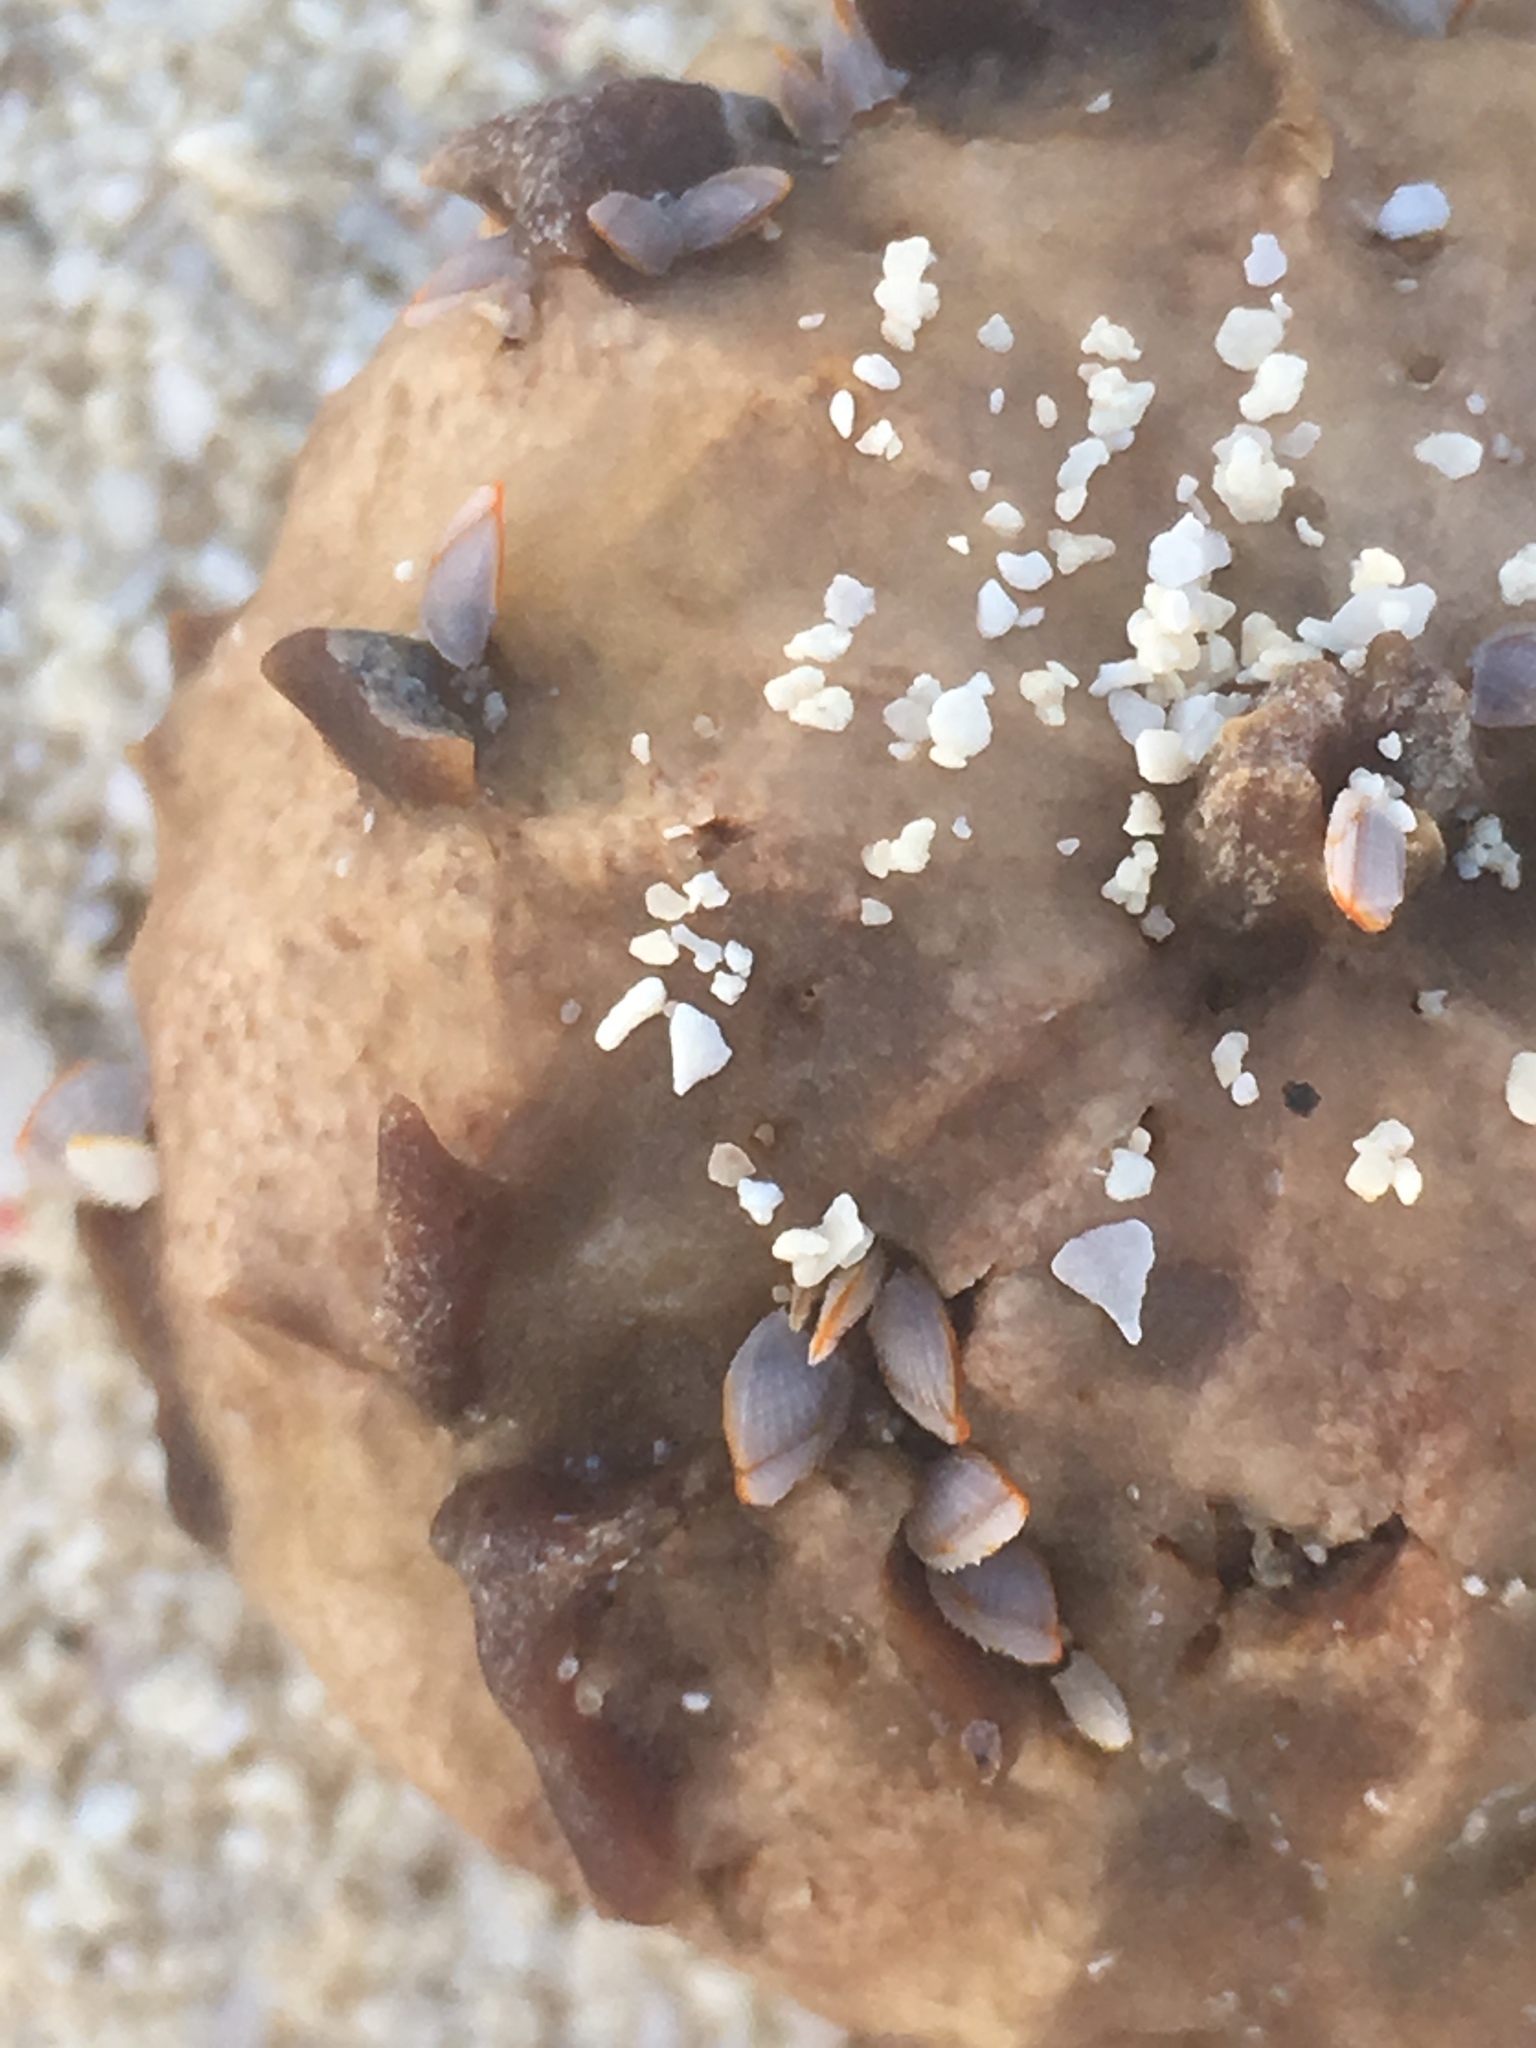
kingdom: Animalia
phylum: Arthropoda
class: Maxillopoda
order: Pedunculata
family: Lepadidae
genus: Lepas
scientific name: Lepas anserifera
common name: Goose barnacle
